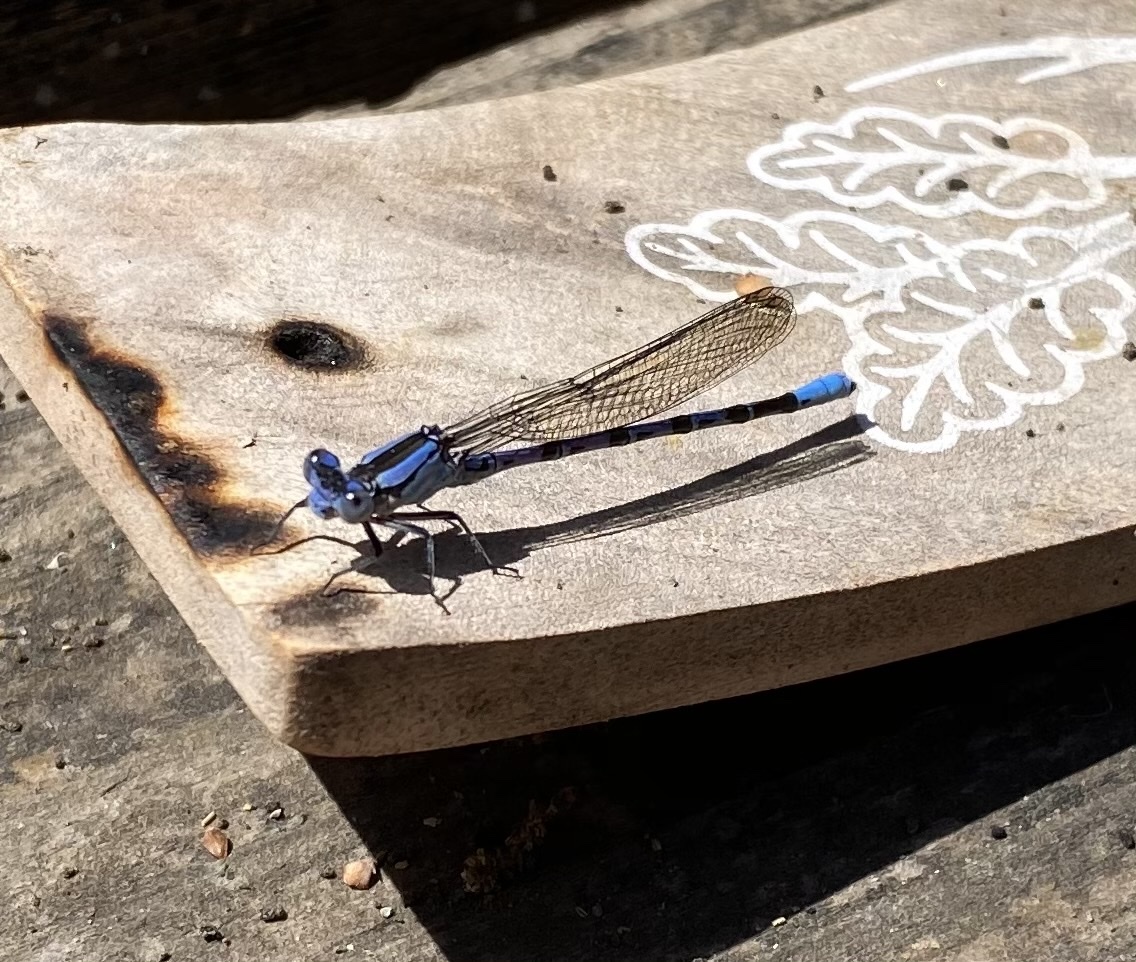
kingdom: Animalia
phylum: Arthropoda
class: Insecta
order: Odonata
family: Coenagrionidae
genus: Argia
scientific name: Argia vivida
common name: Vivid dancer
